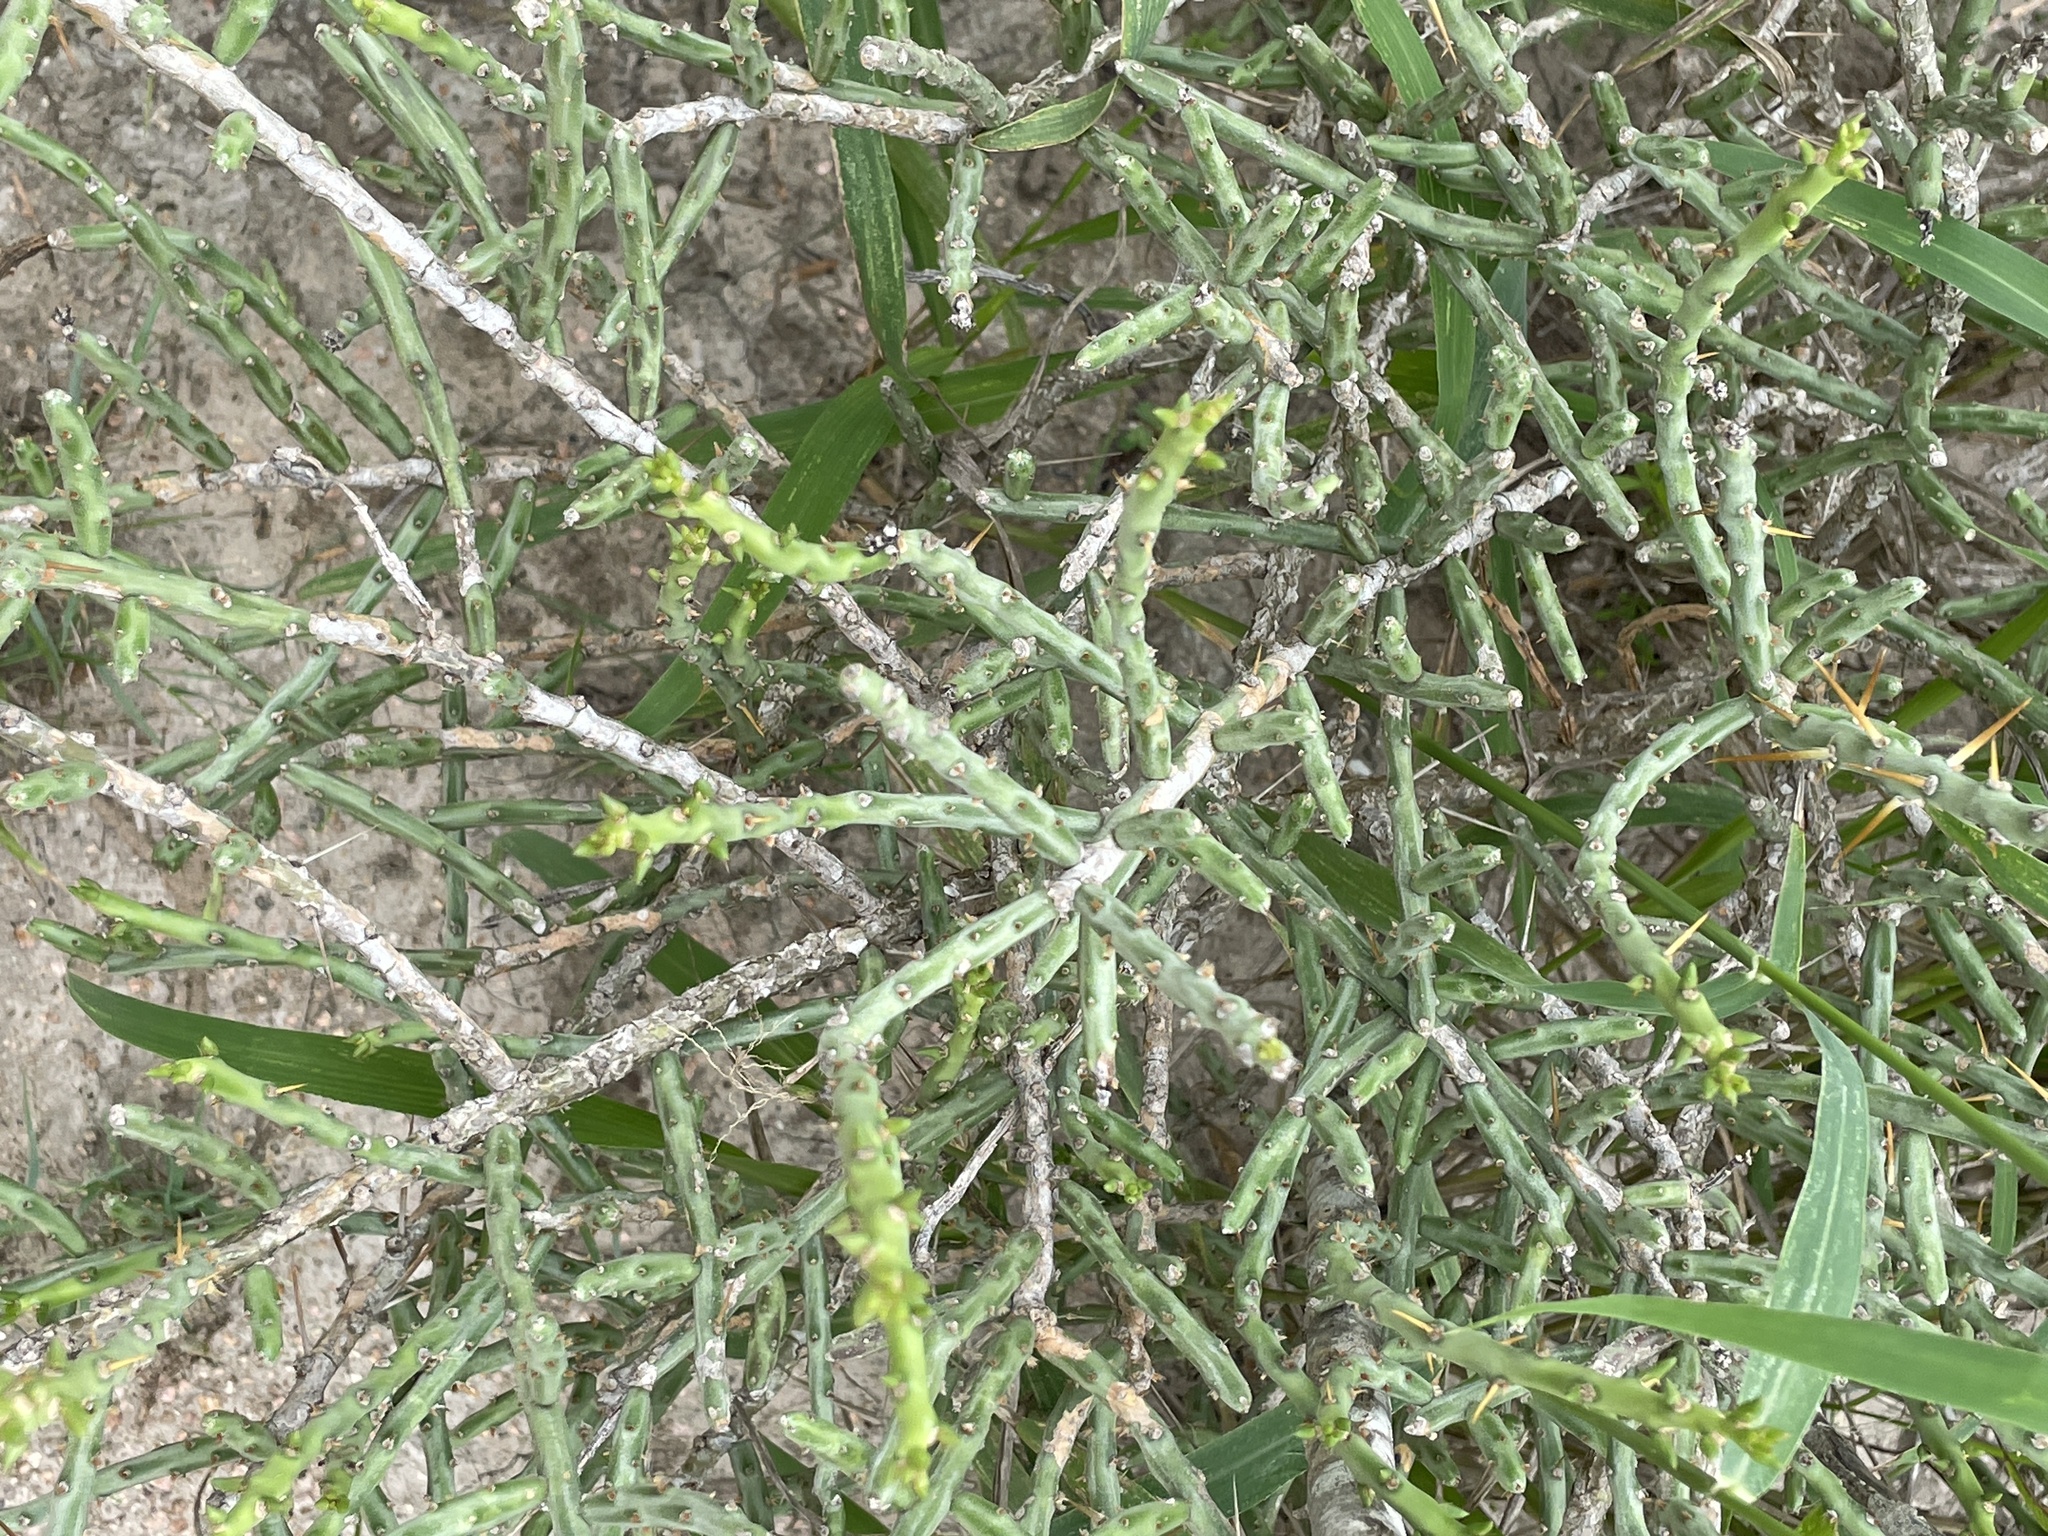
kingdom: Plantae
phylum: Tracheophyta
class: Magnoliopsida
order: Caryophyllales
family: Cactaceae
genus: Cylindropuntia
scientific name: Cylindropuntia leptocaulis
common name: Christmas cactus
